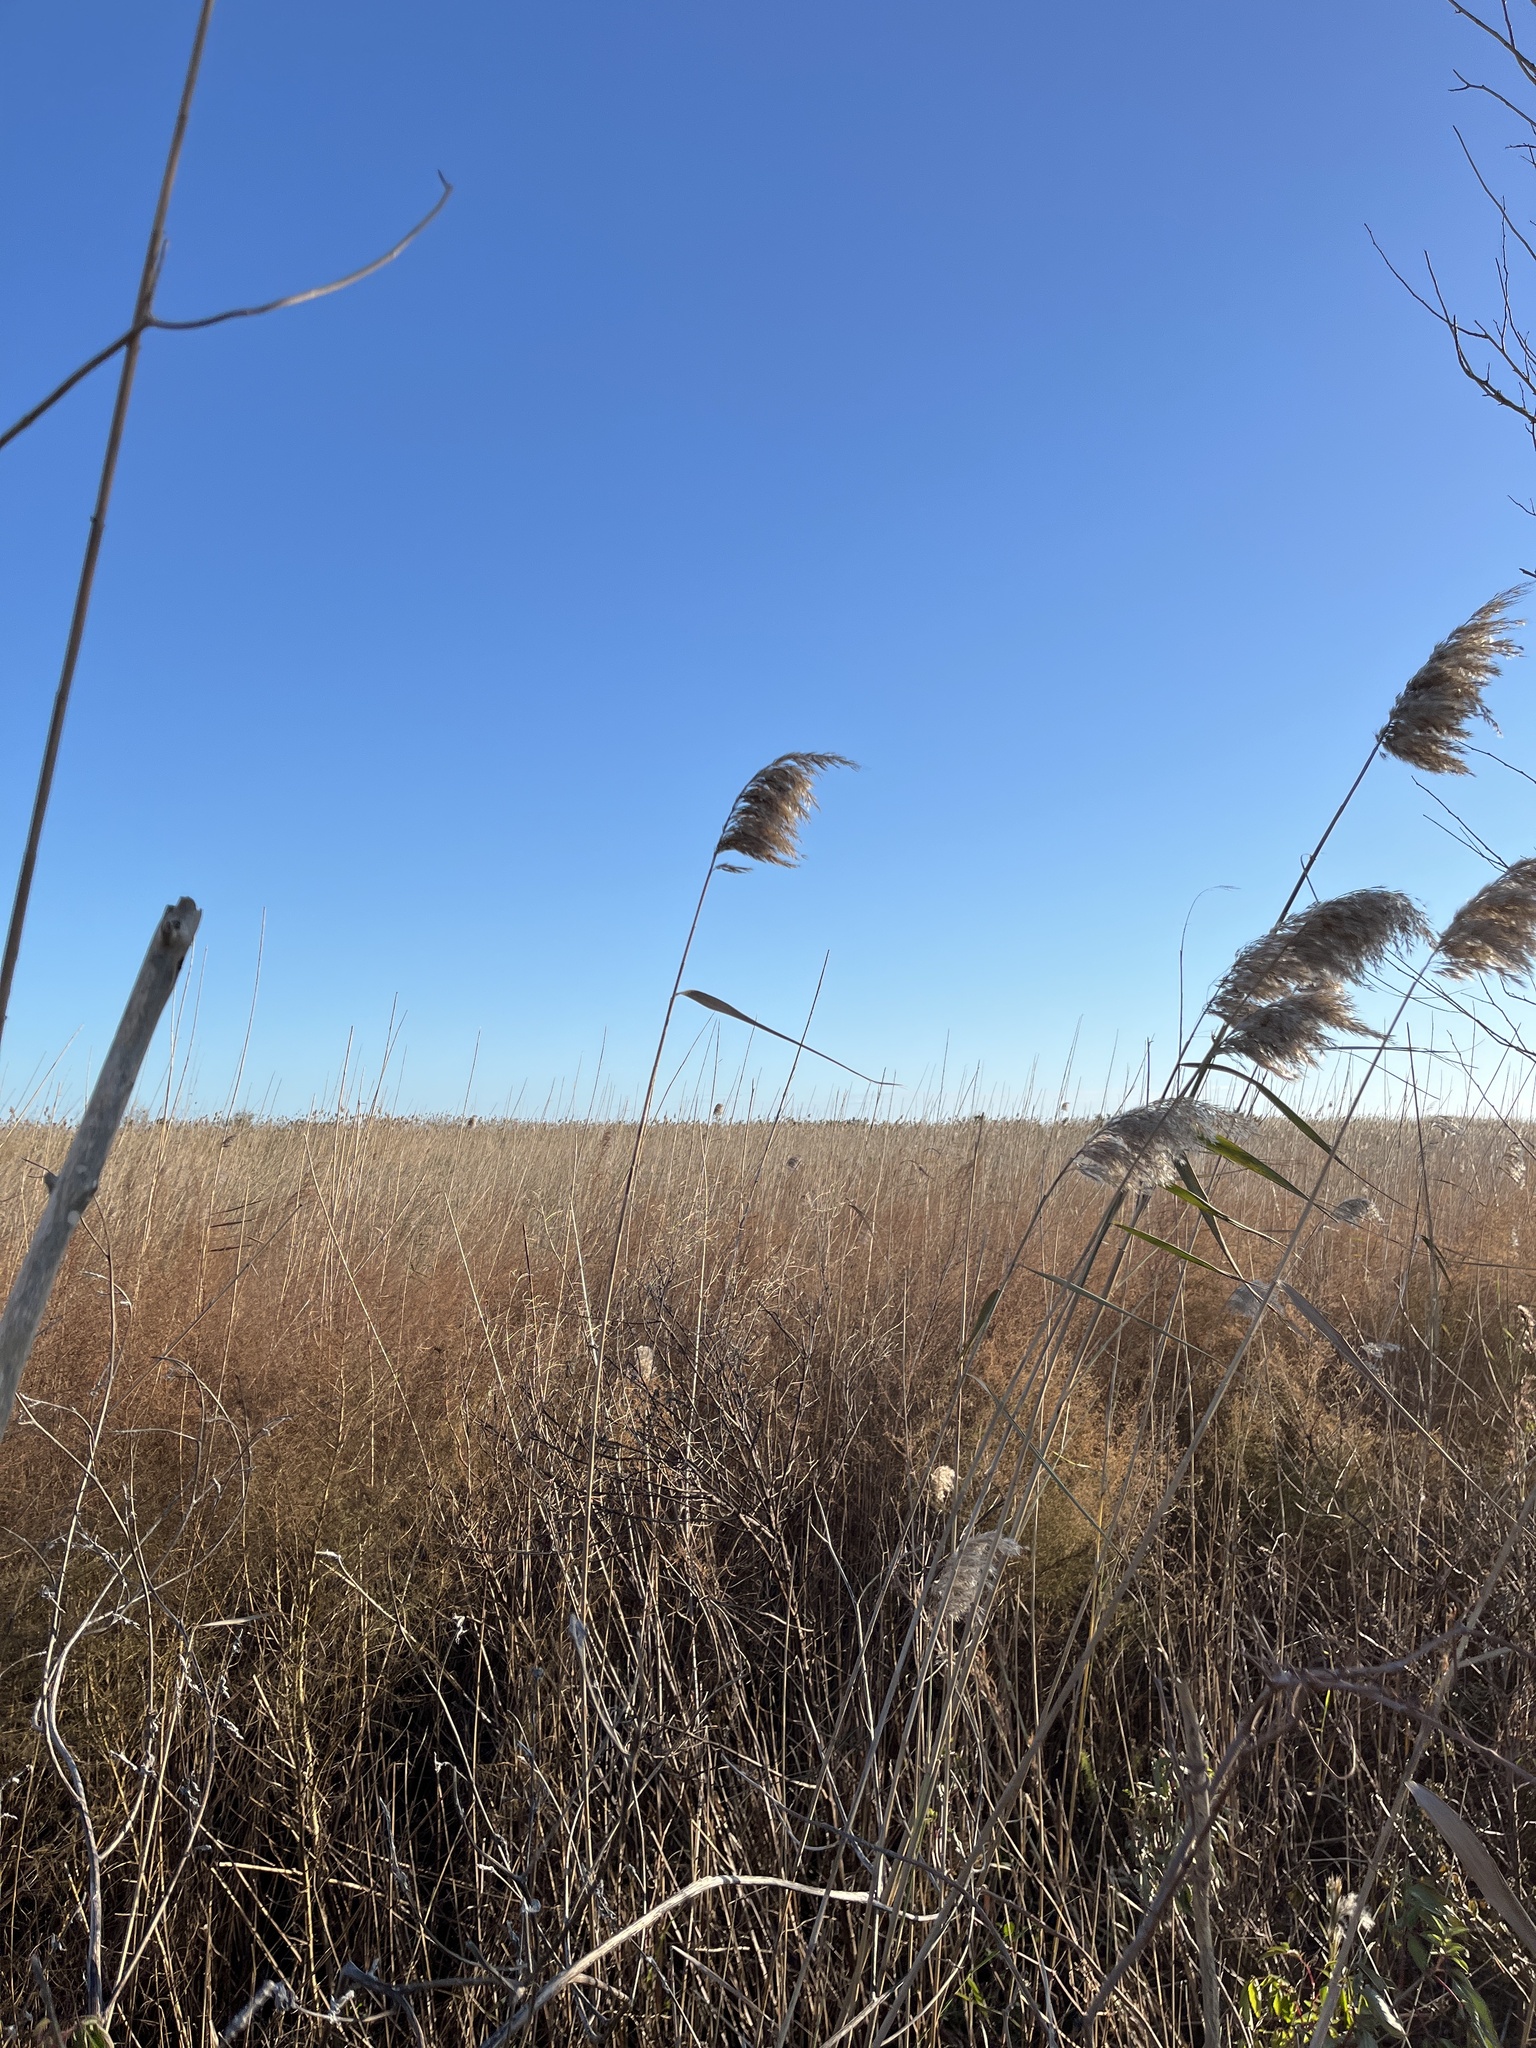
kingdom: Plantae
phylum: Tracheophyta
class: Liliopsida
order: Poales
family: Poaceae
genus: Phragmites
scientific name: Phragmites australis
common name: Common reed
